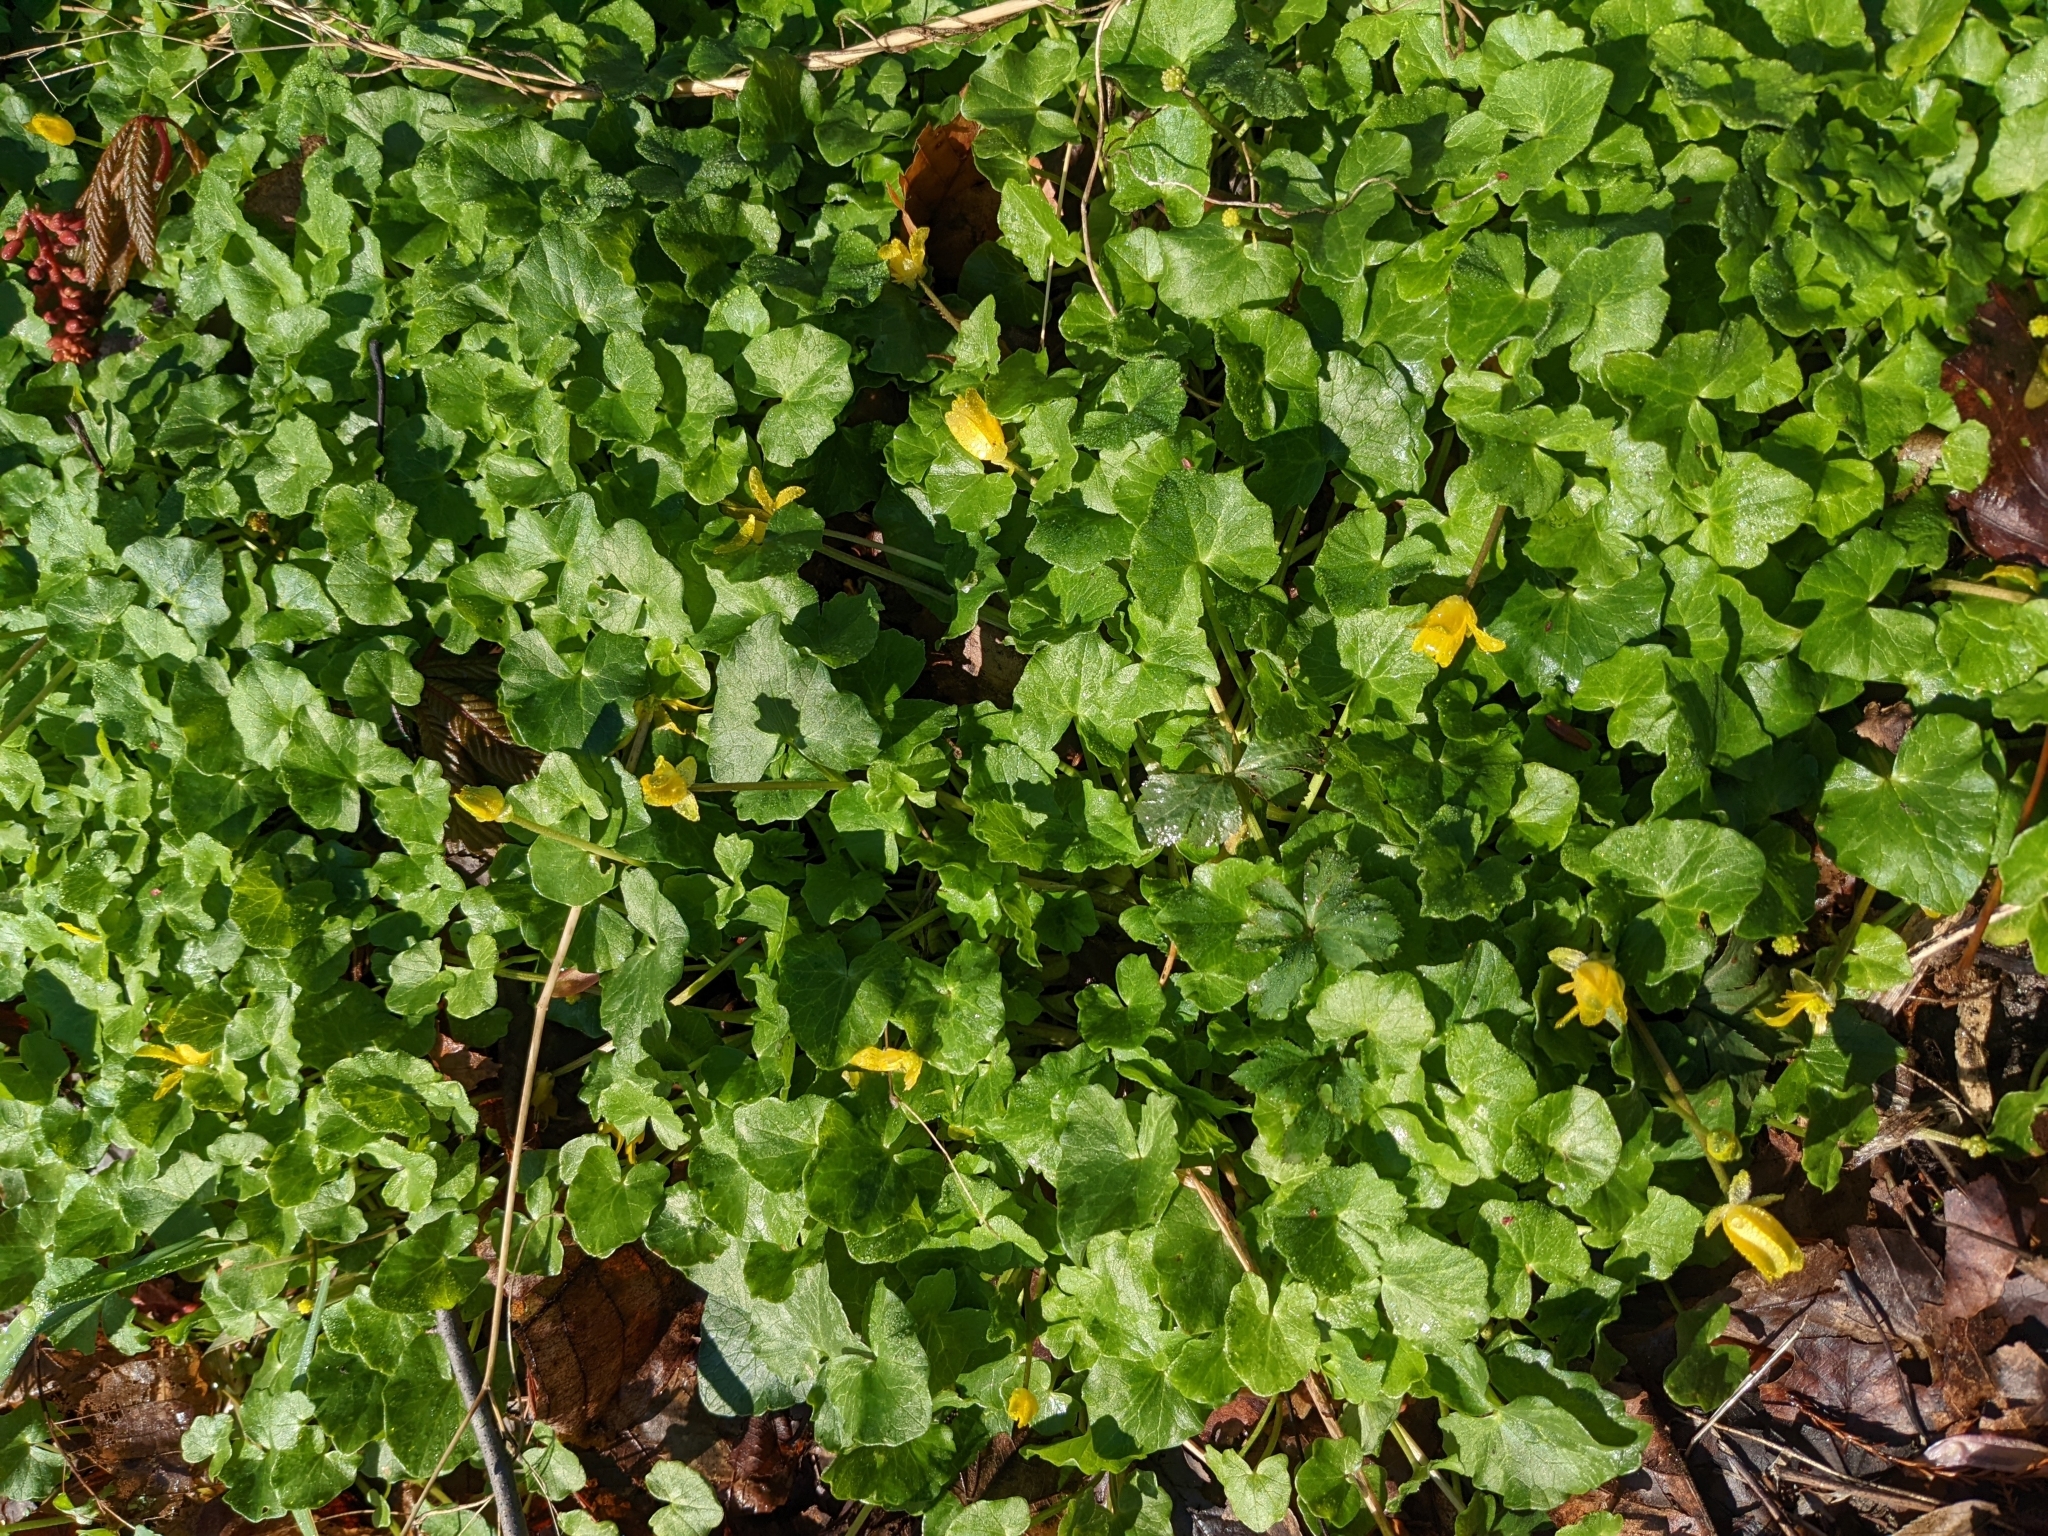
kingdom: Plantae
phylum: Tracheophyta
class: Magnoliopsida
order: Ranunculales
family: Ranunculaceae
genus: Ficaria
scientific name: Ficaria verna
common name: Lesser celandine
